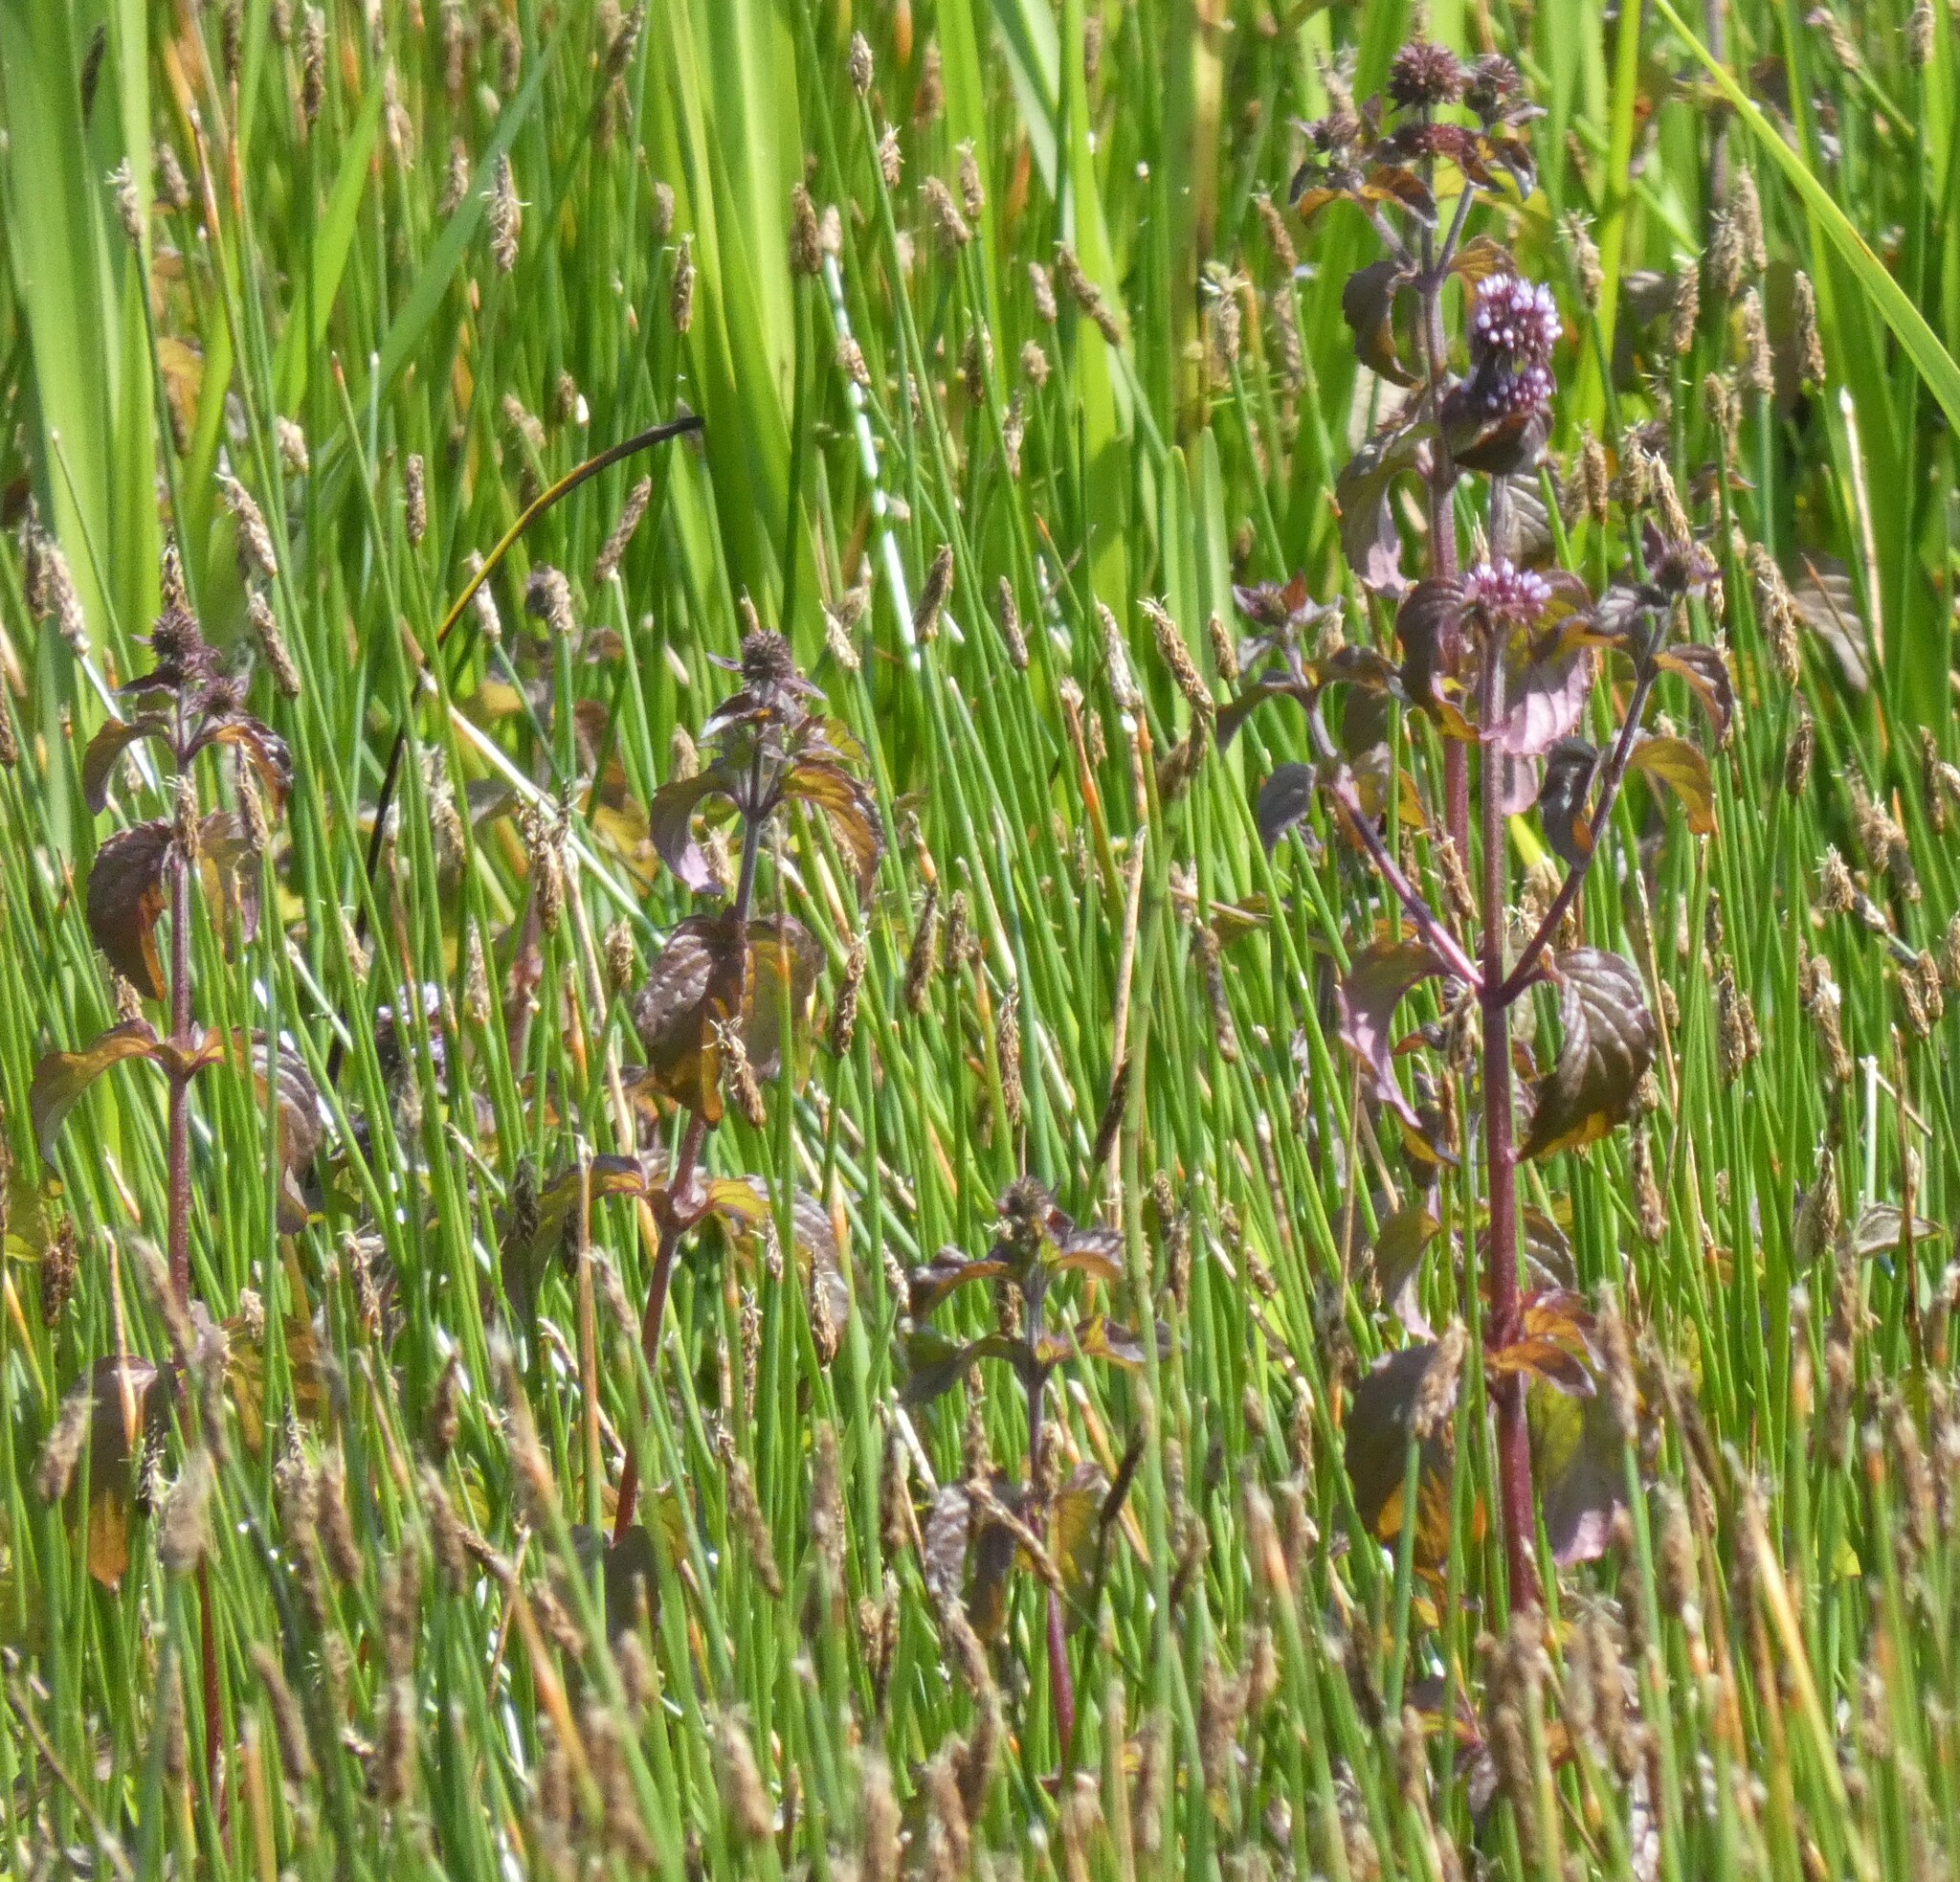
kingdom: Plantae
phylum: Tracheophyta
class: Magnoliopsida
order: Lamiales
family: Lamiaceae
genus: Mentha
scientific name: Mentha aquatica
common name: Water mint
